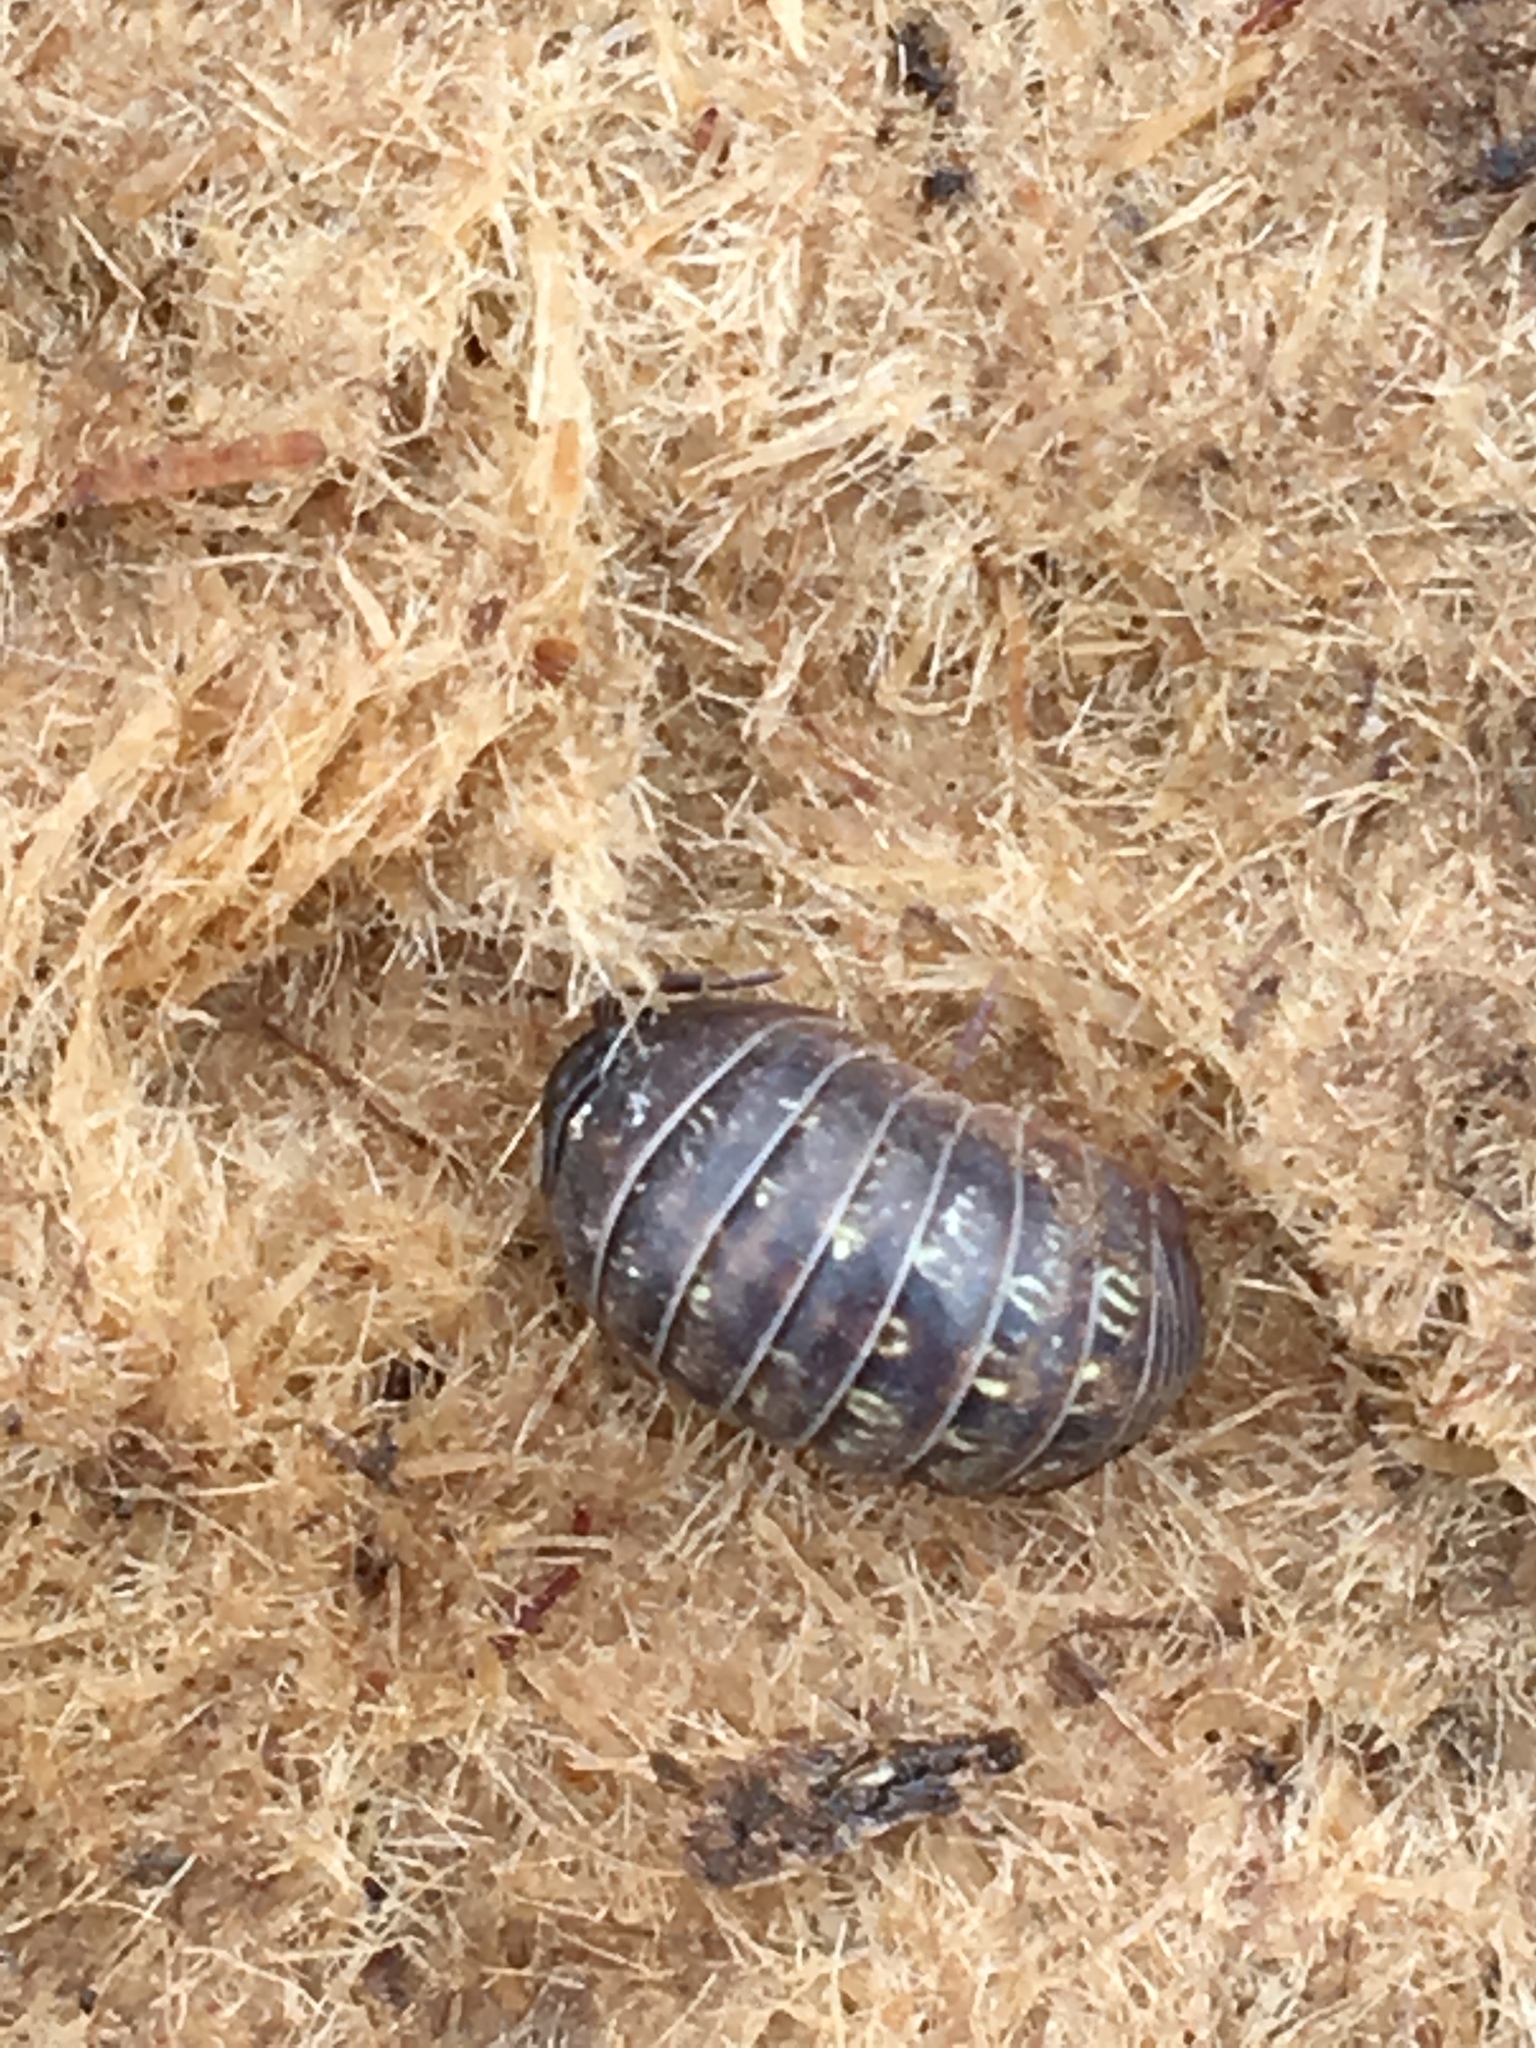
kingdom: Animalia
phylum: Arthropoda
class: Malacostraca
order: Isopoda
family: Armadillidiidae
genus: Armadillidium
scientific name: Armadillidium vulgare
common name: Common pill woodlouse
